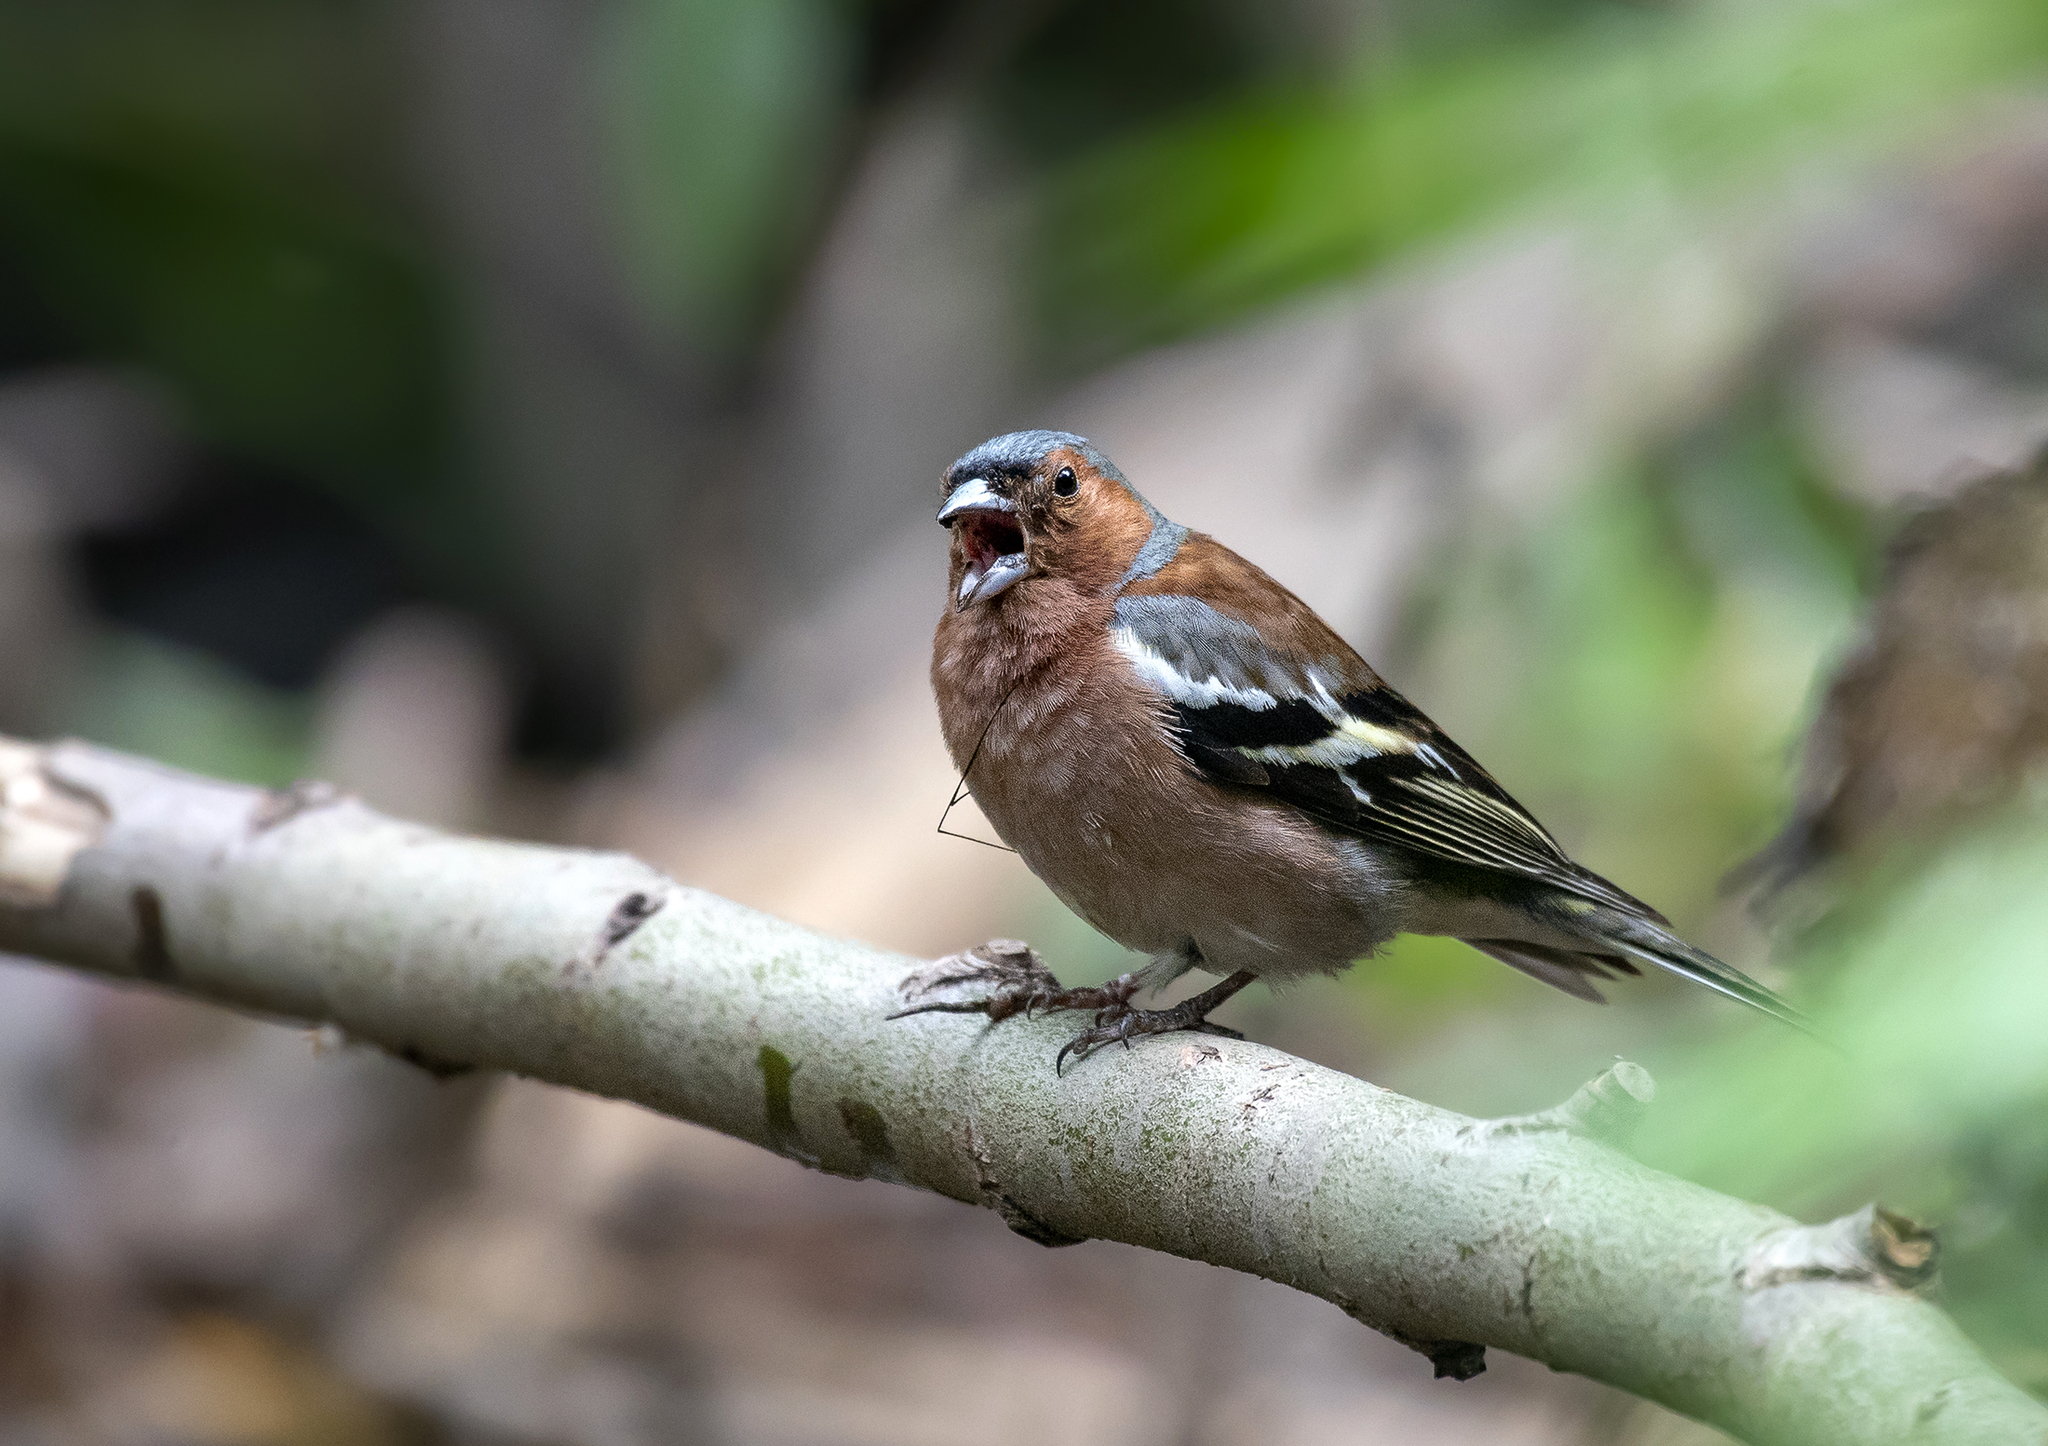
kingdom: Animalia
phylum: Chordata
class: Aves
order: Passeriformes
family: Fringillidae
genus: Fringilla
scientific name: Fringilla coelebs
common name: Common chaffinch
